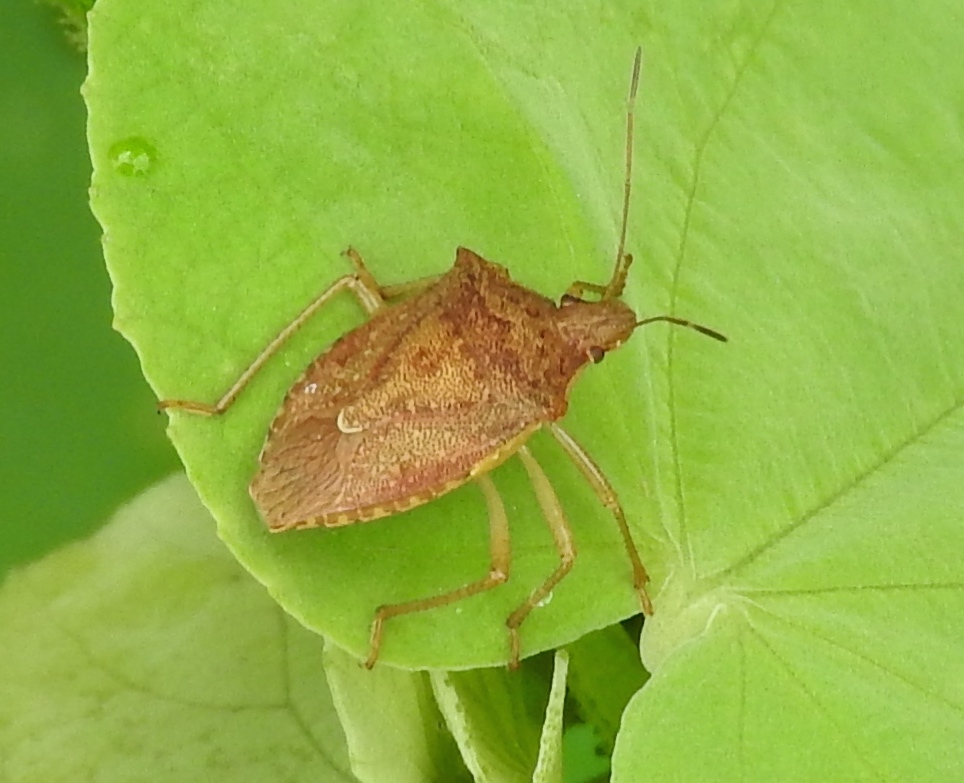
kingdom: Animalia
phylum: Arthropoda
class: Insecta
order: Hemiptera
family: Pentatomidae
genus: Euschistus
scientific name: Euschistus
